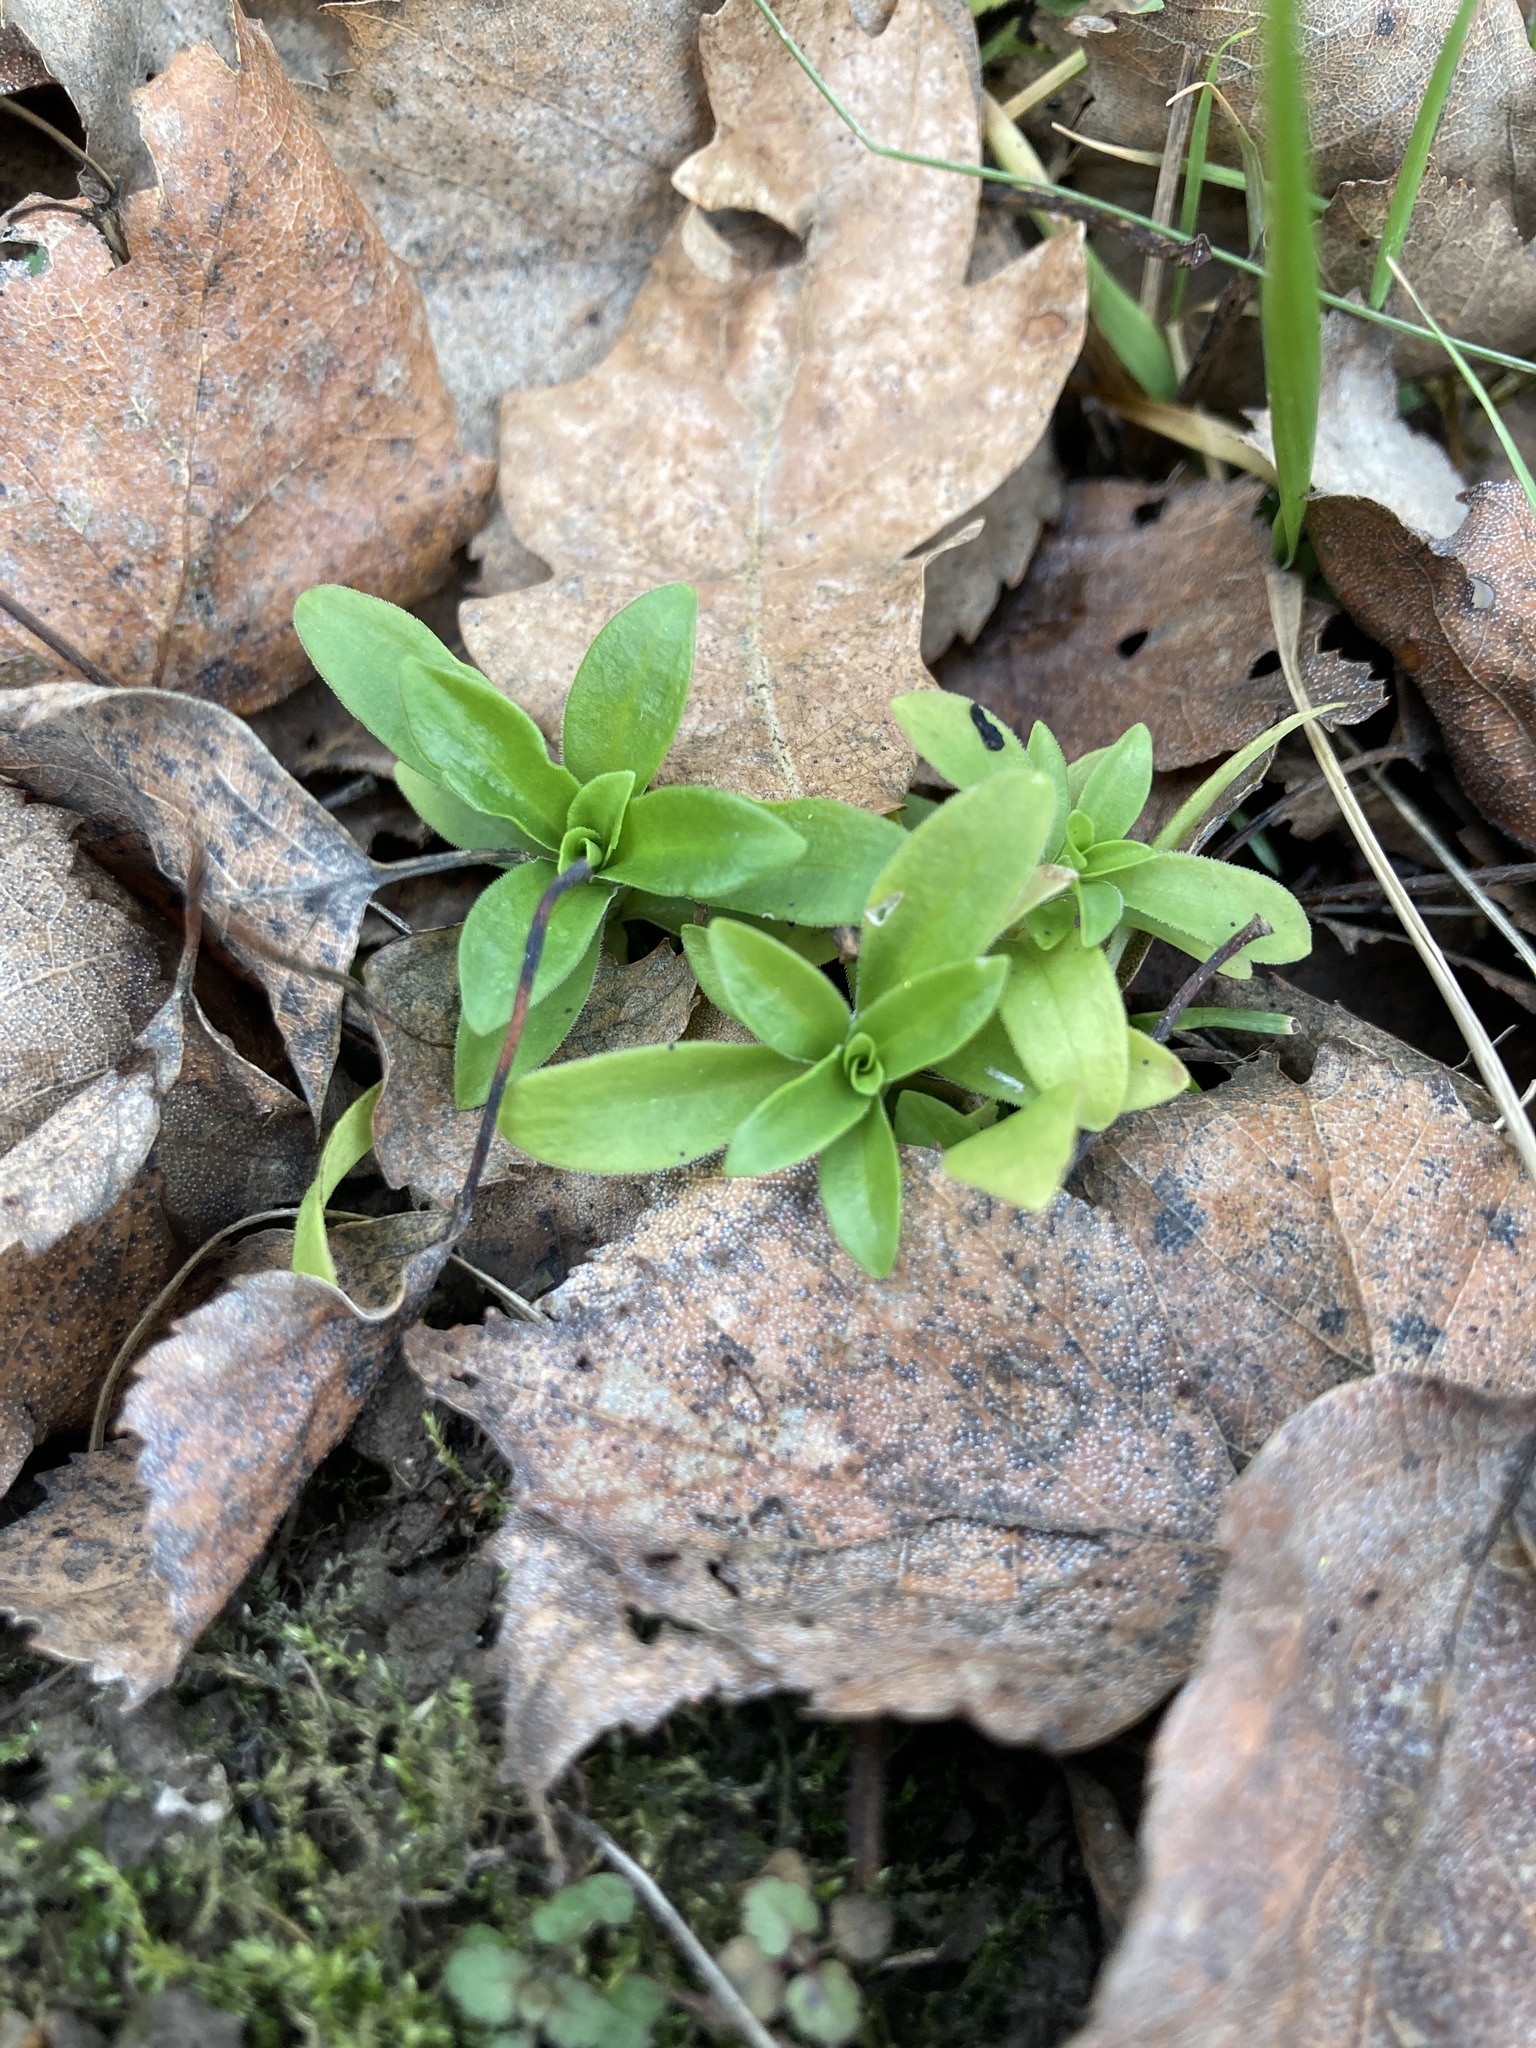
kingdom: Plantae
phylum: Tracheophyta
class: Magnoliopsida
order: Caryophyllales
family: Caryophyllaceae
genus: Dianthus
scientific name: Dianthus barbatus
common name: Sweet-william
